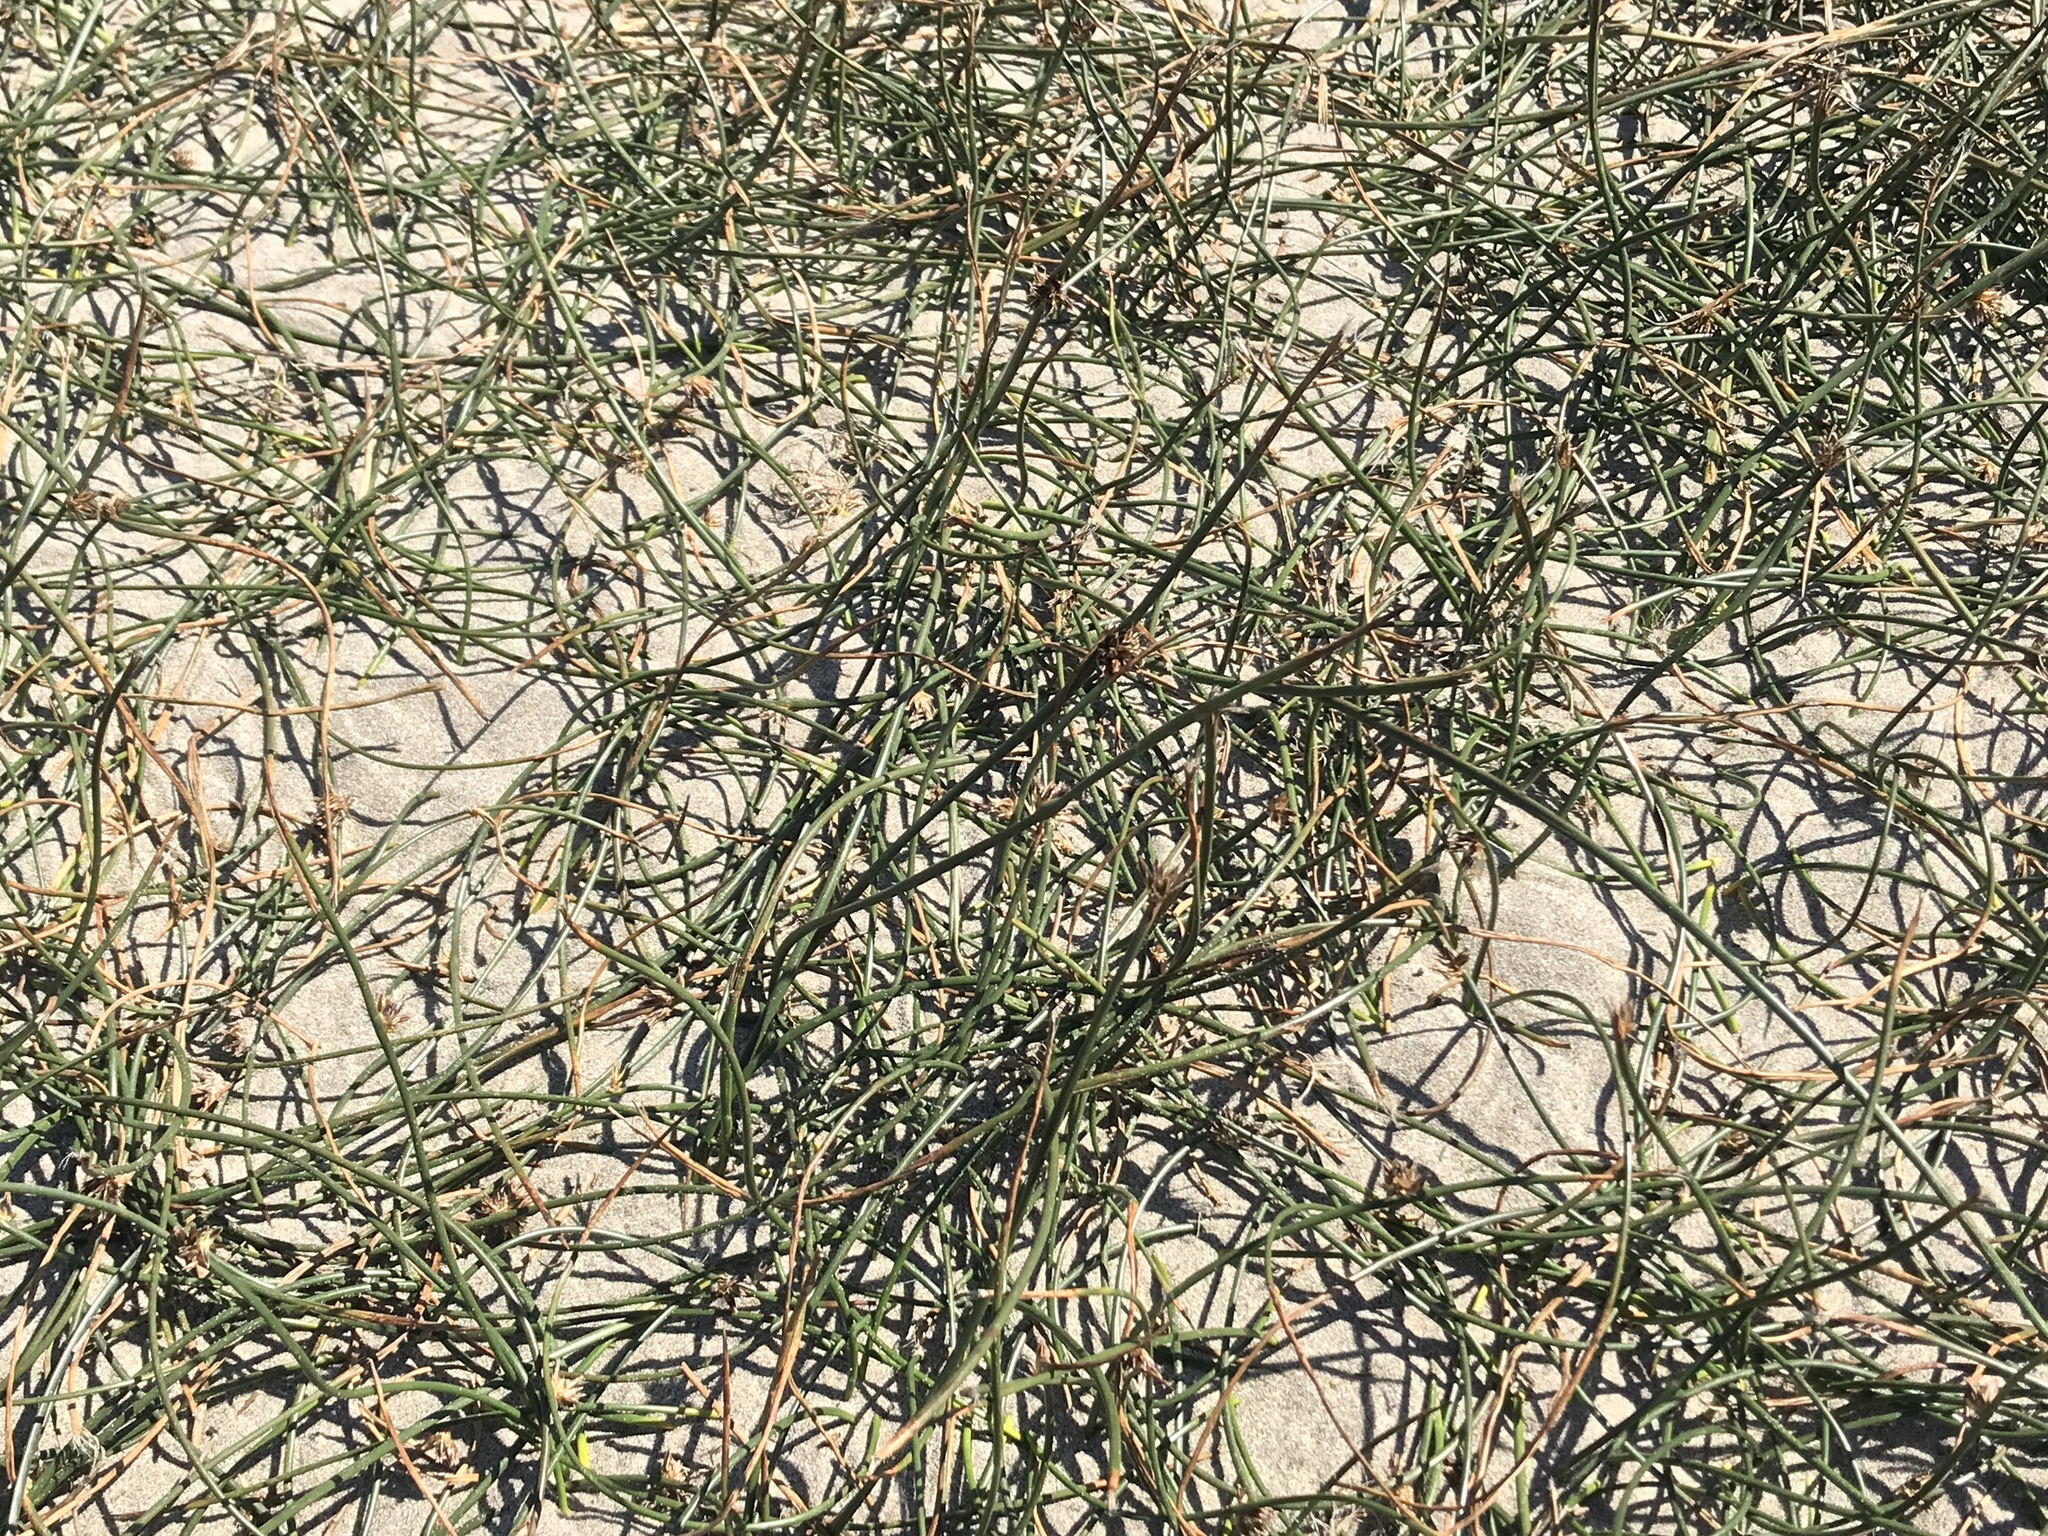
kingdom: Plantae
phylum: Tracheophyta
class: Liliopsida
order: Poales
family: Juncaceae
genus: Juncus
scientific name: Juncus breweri
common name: Brewer's rush
